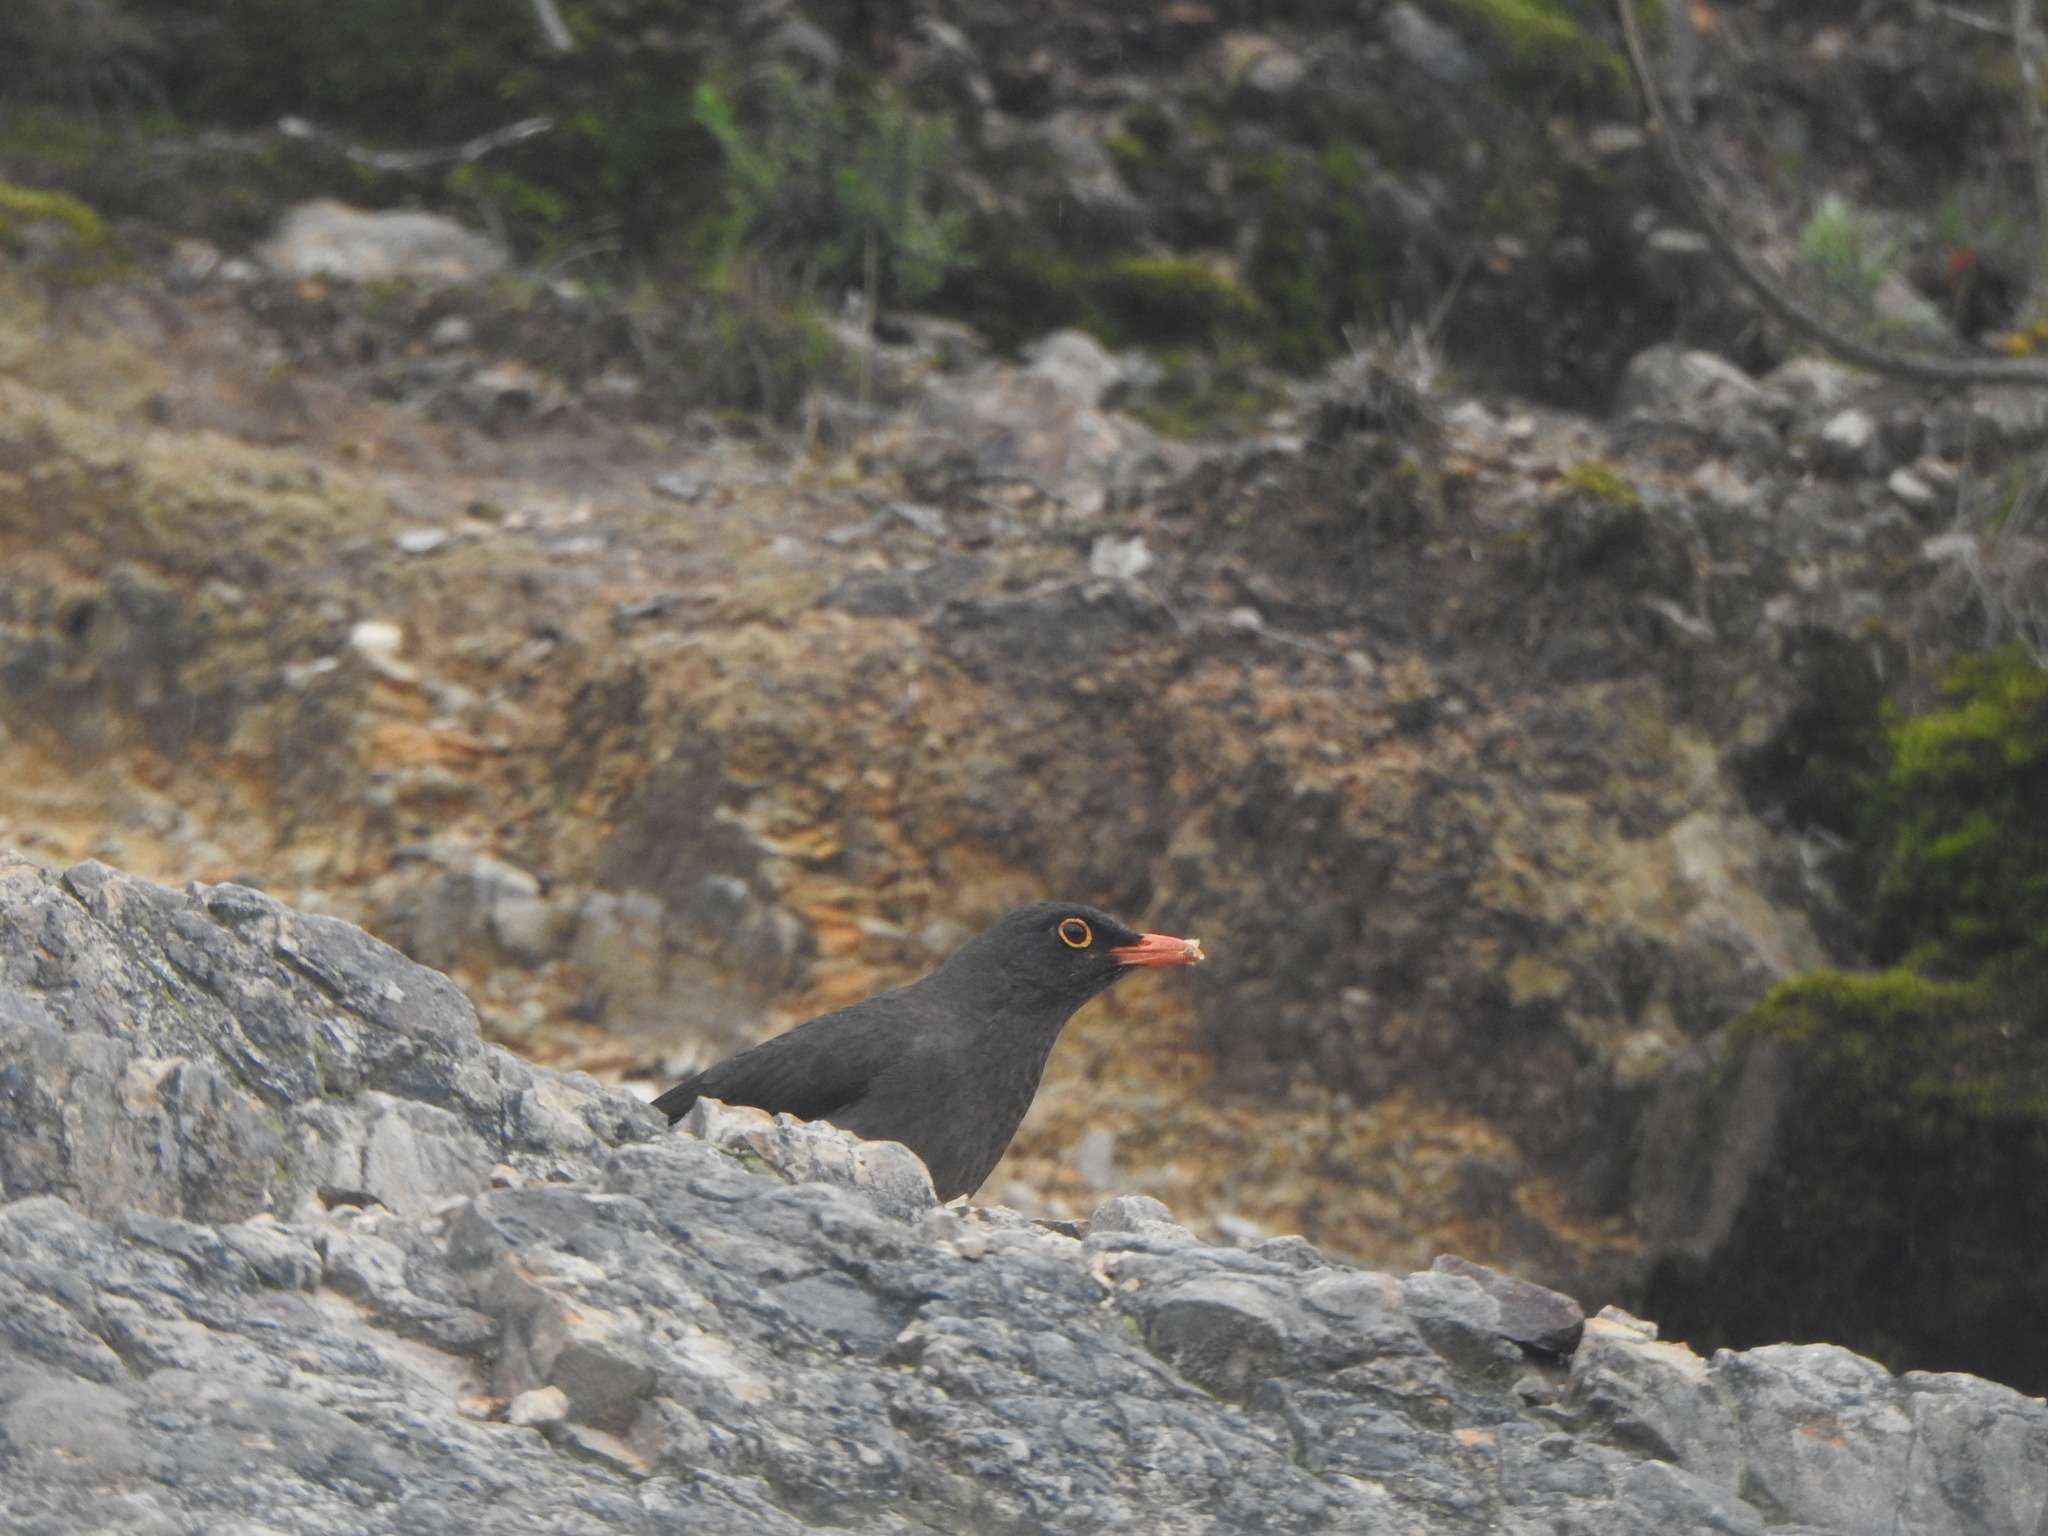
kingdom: Animalia
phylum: Chordata
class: Aves
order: Passeriformes
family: Turdidae
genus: Turdus
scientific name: Turdus fuscater
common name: Great thrush
